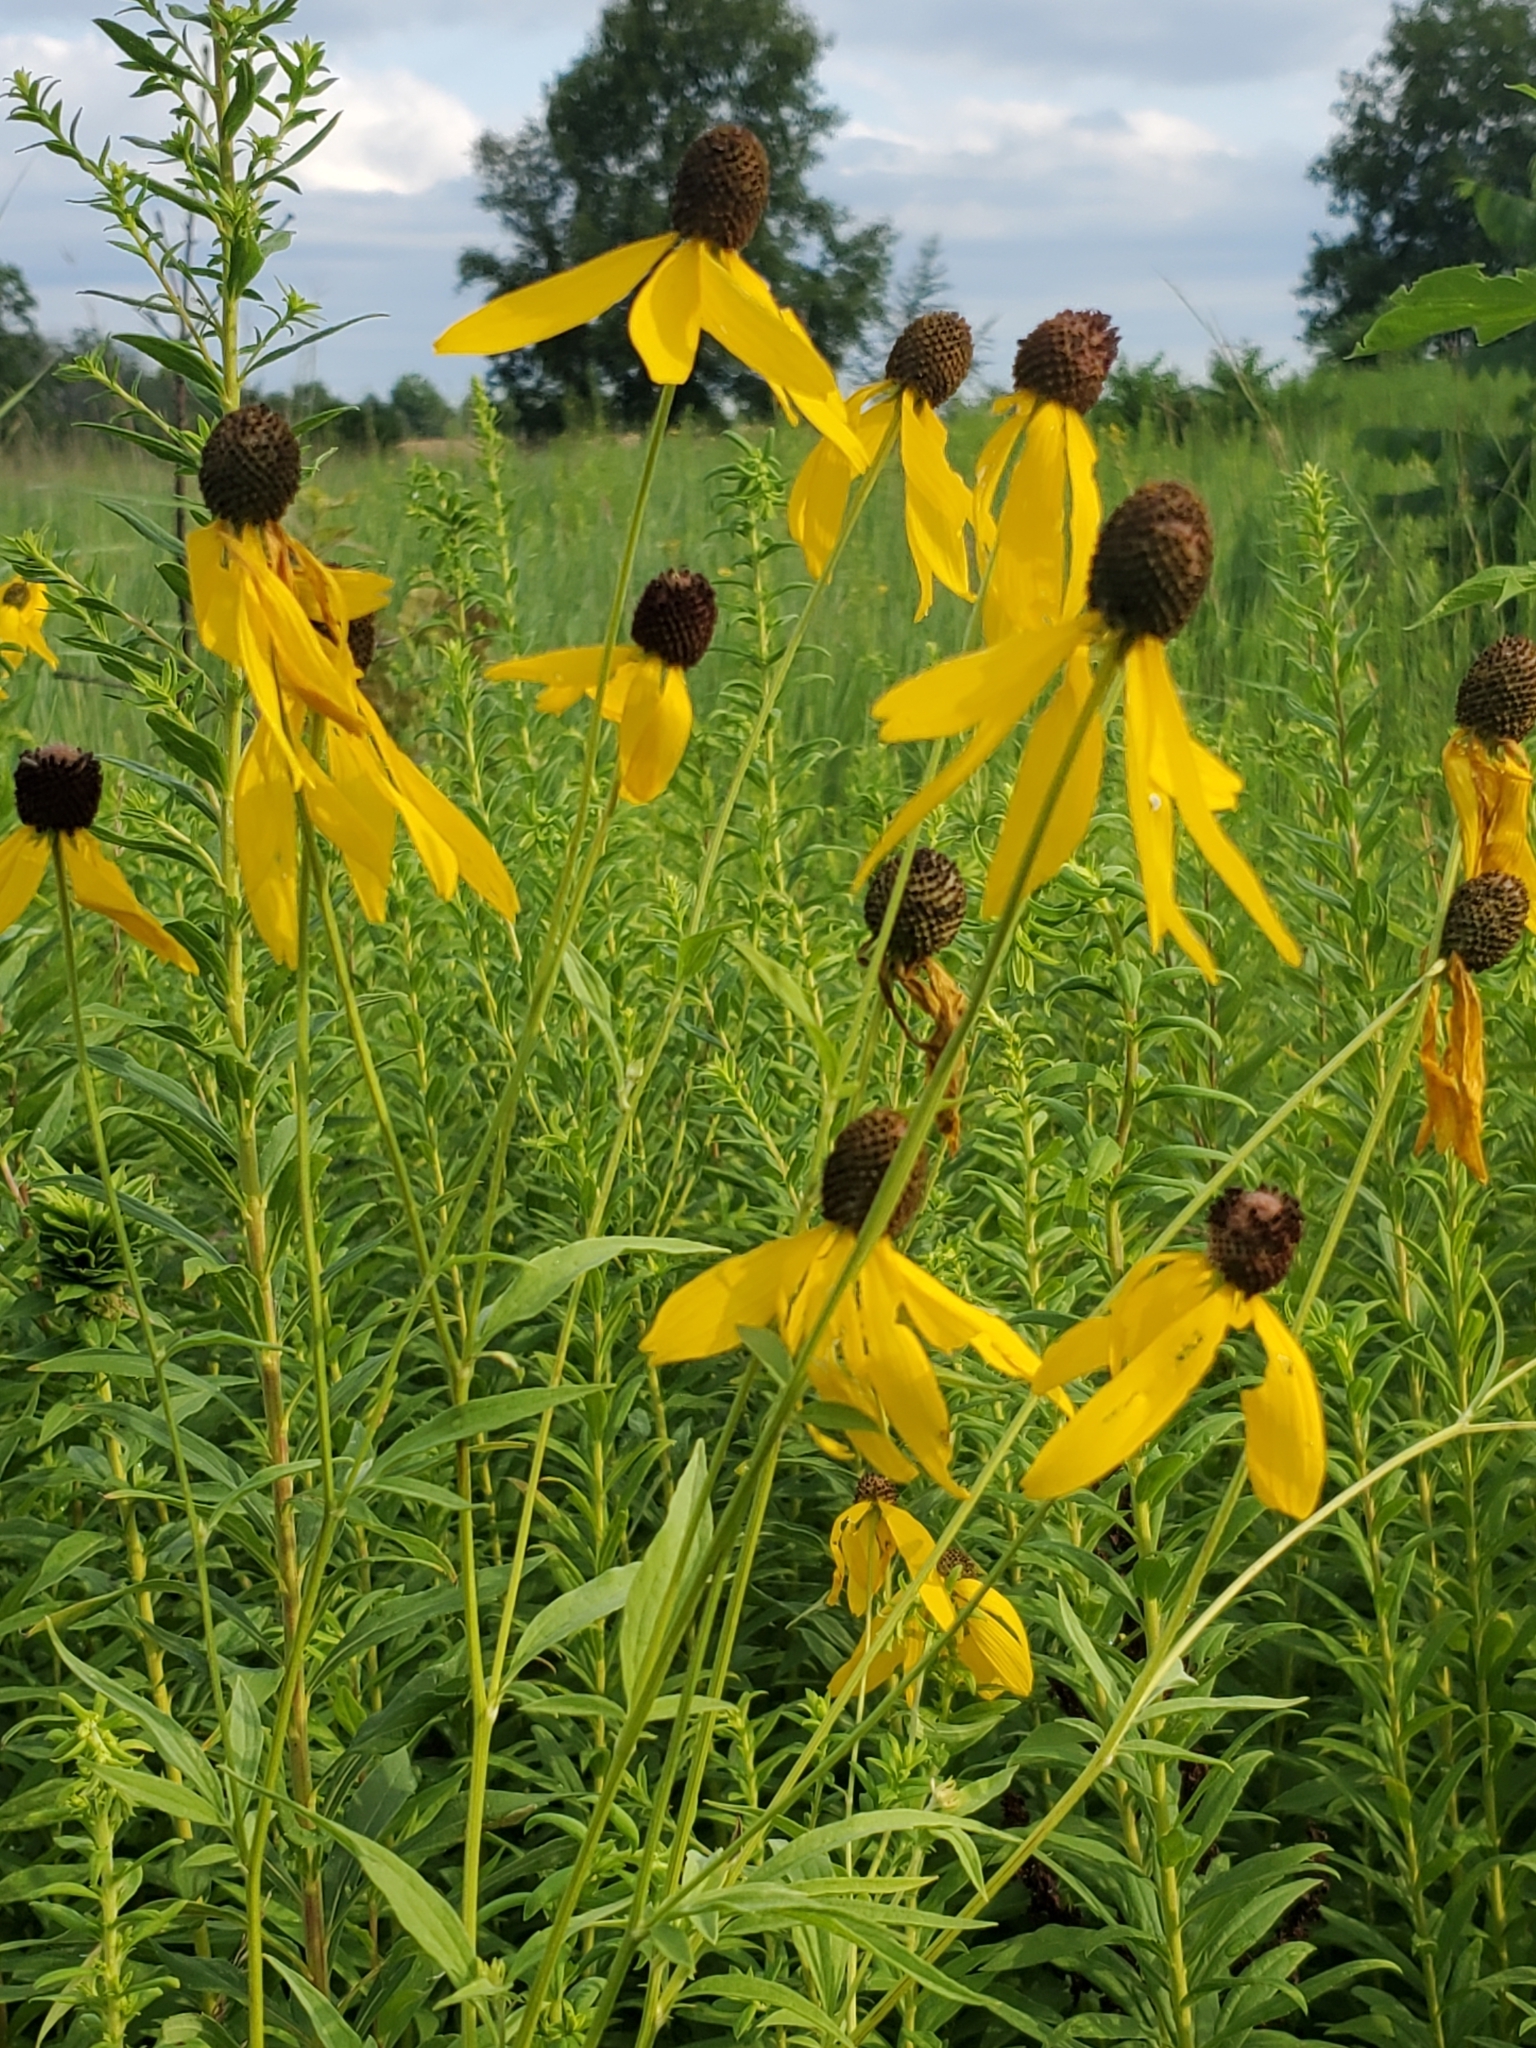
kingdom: Plantae
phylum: Tracheophyta
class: Magnoliopsida
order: Asterales
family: Asteraceae
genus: Ratibida
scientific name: Ratibida pinnata
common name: Drooping prairie-coneflower
